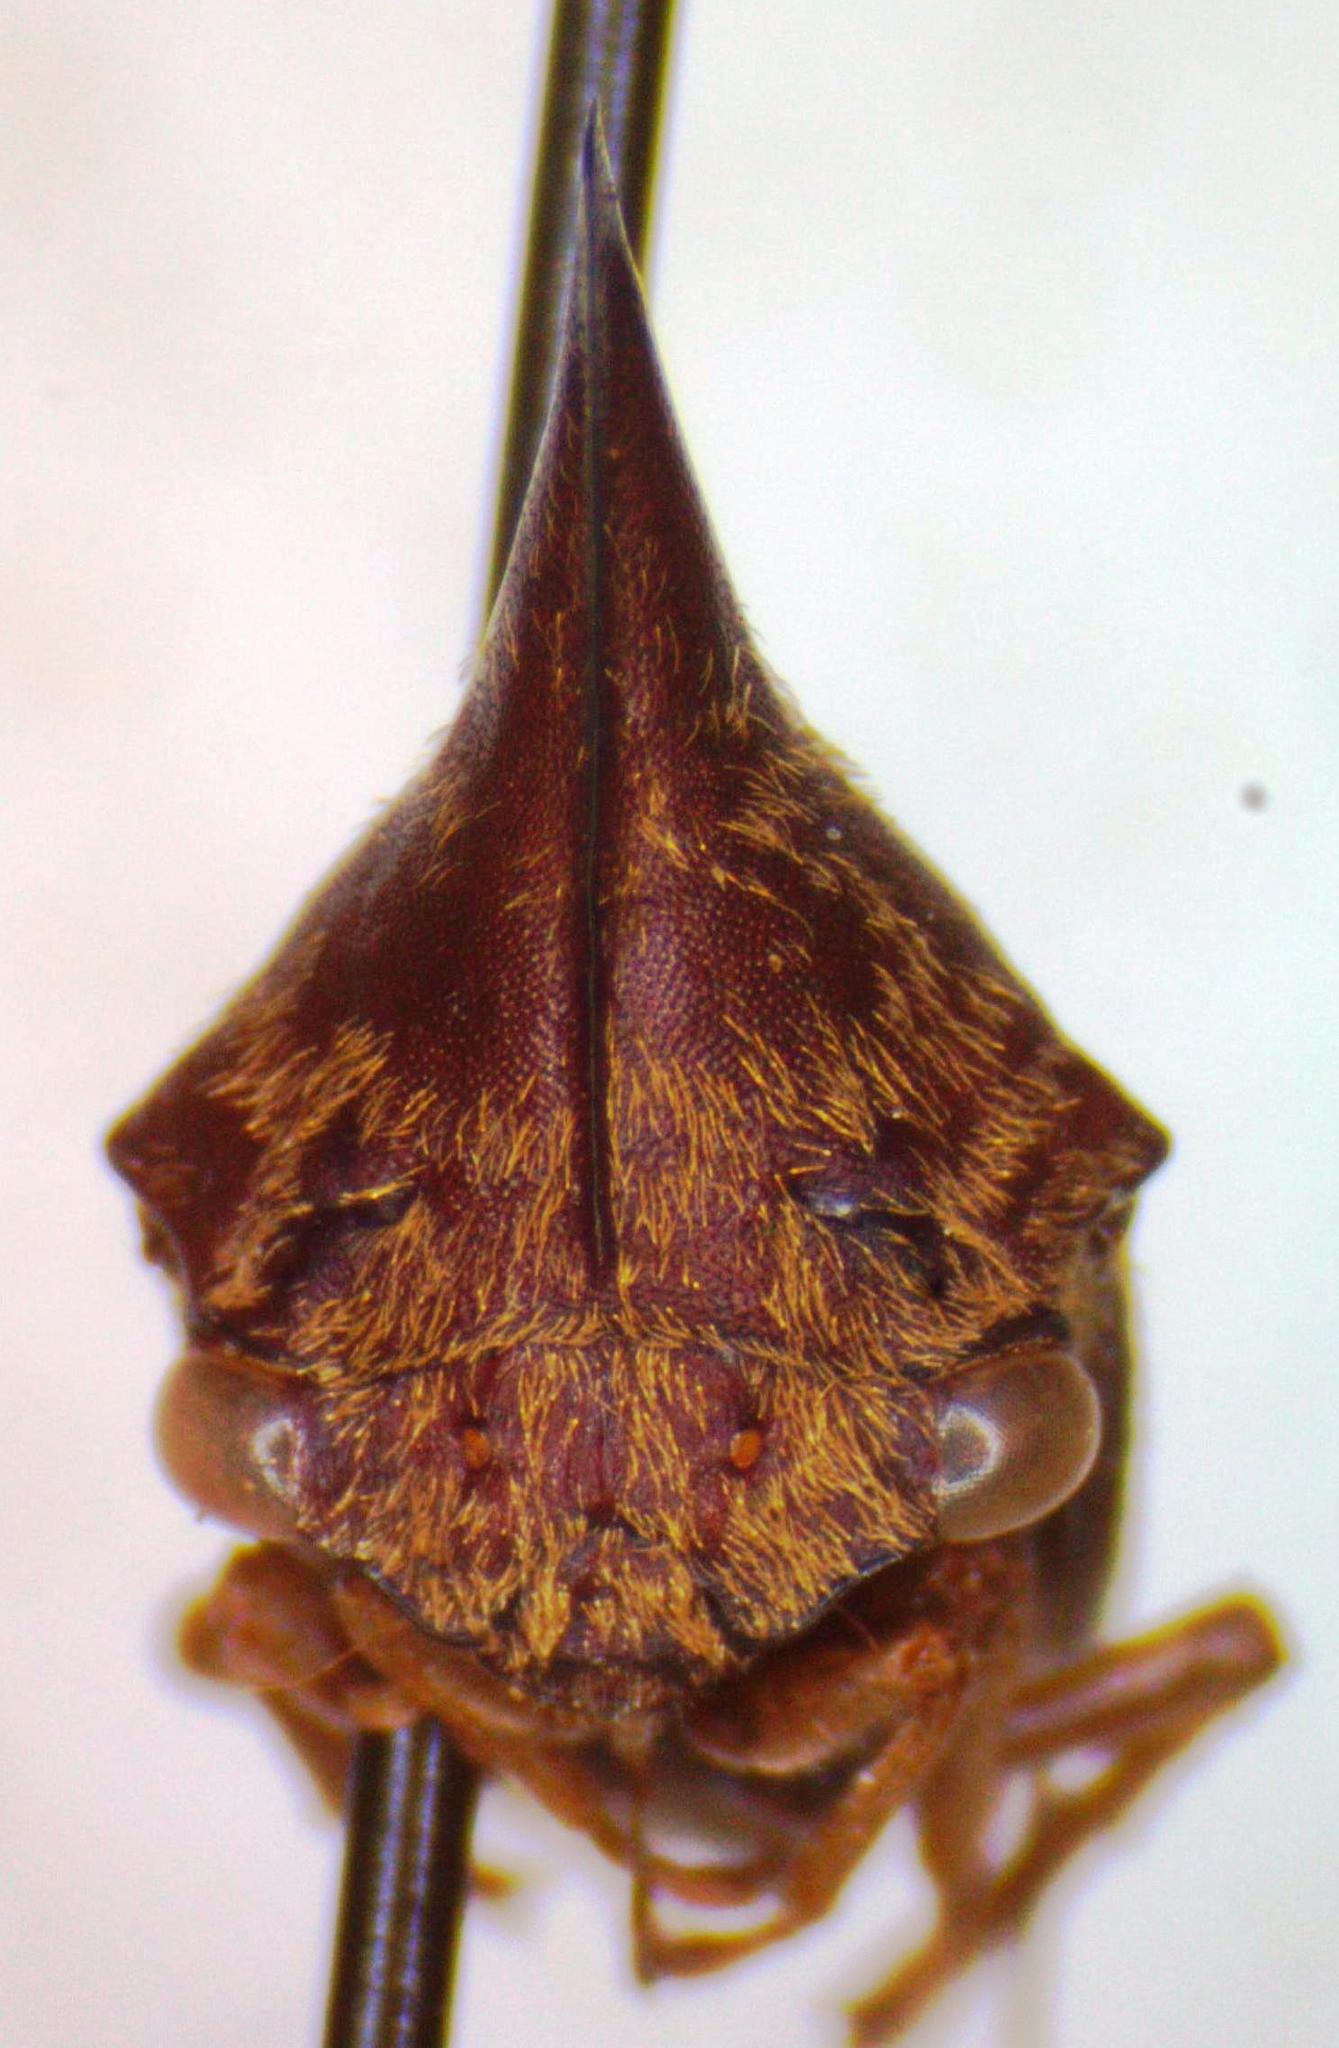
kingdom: Animalia
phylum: Arthropoda
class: Insecta
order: Hemiptera
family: Membracidae
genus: Aconophora
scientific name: Aconophora mexicana
